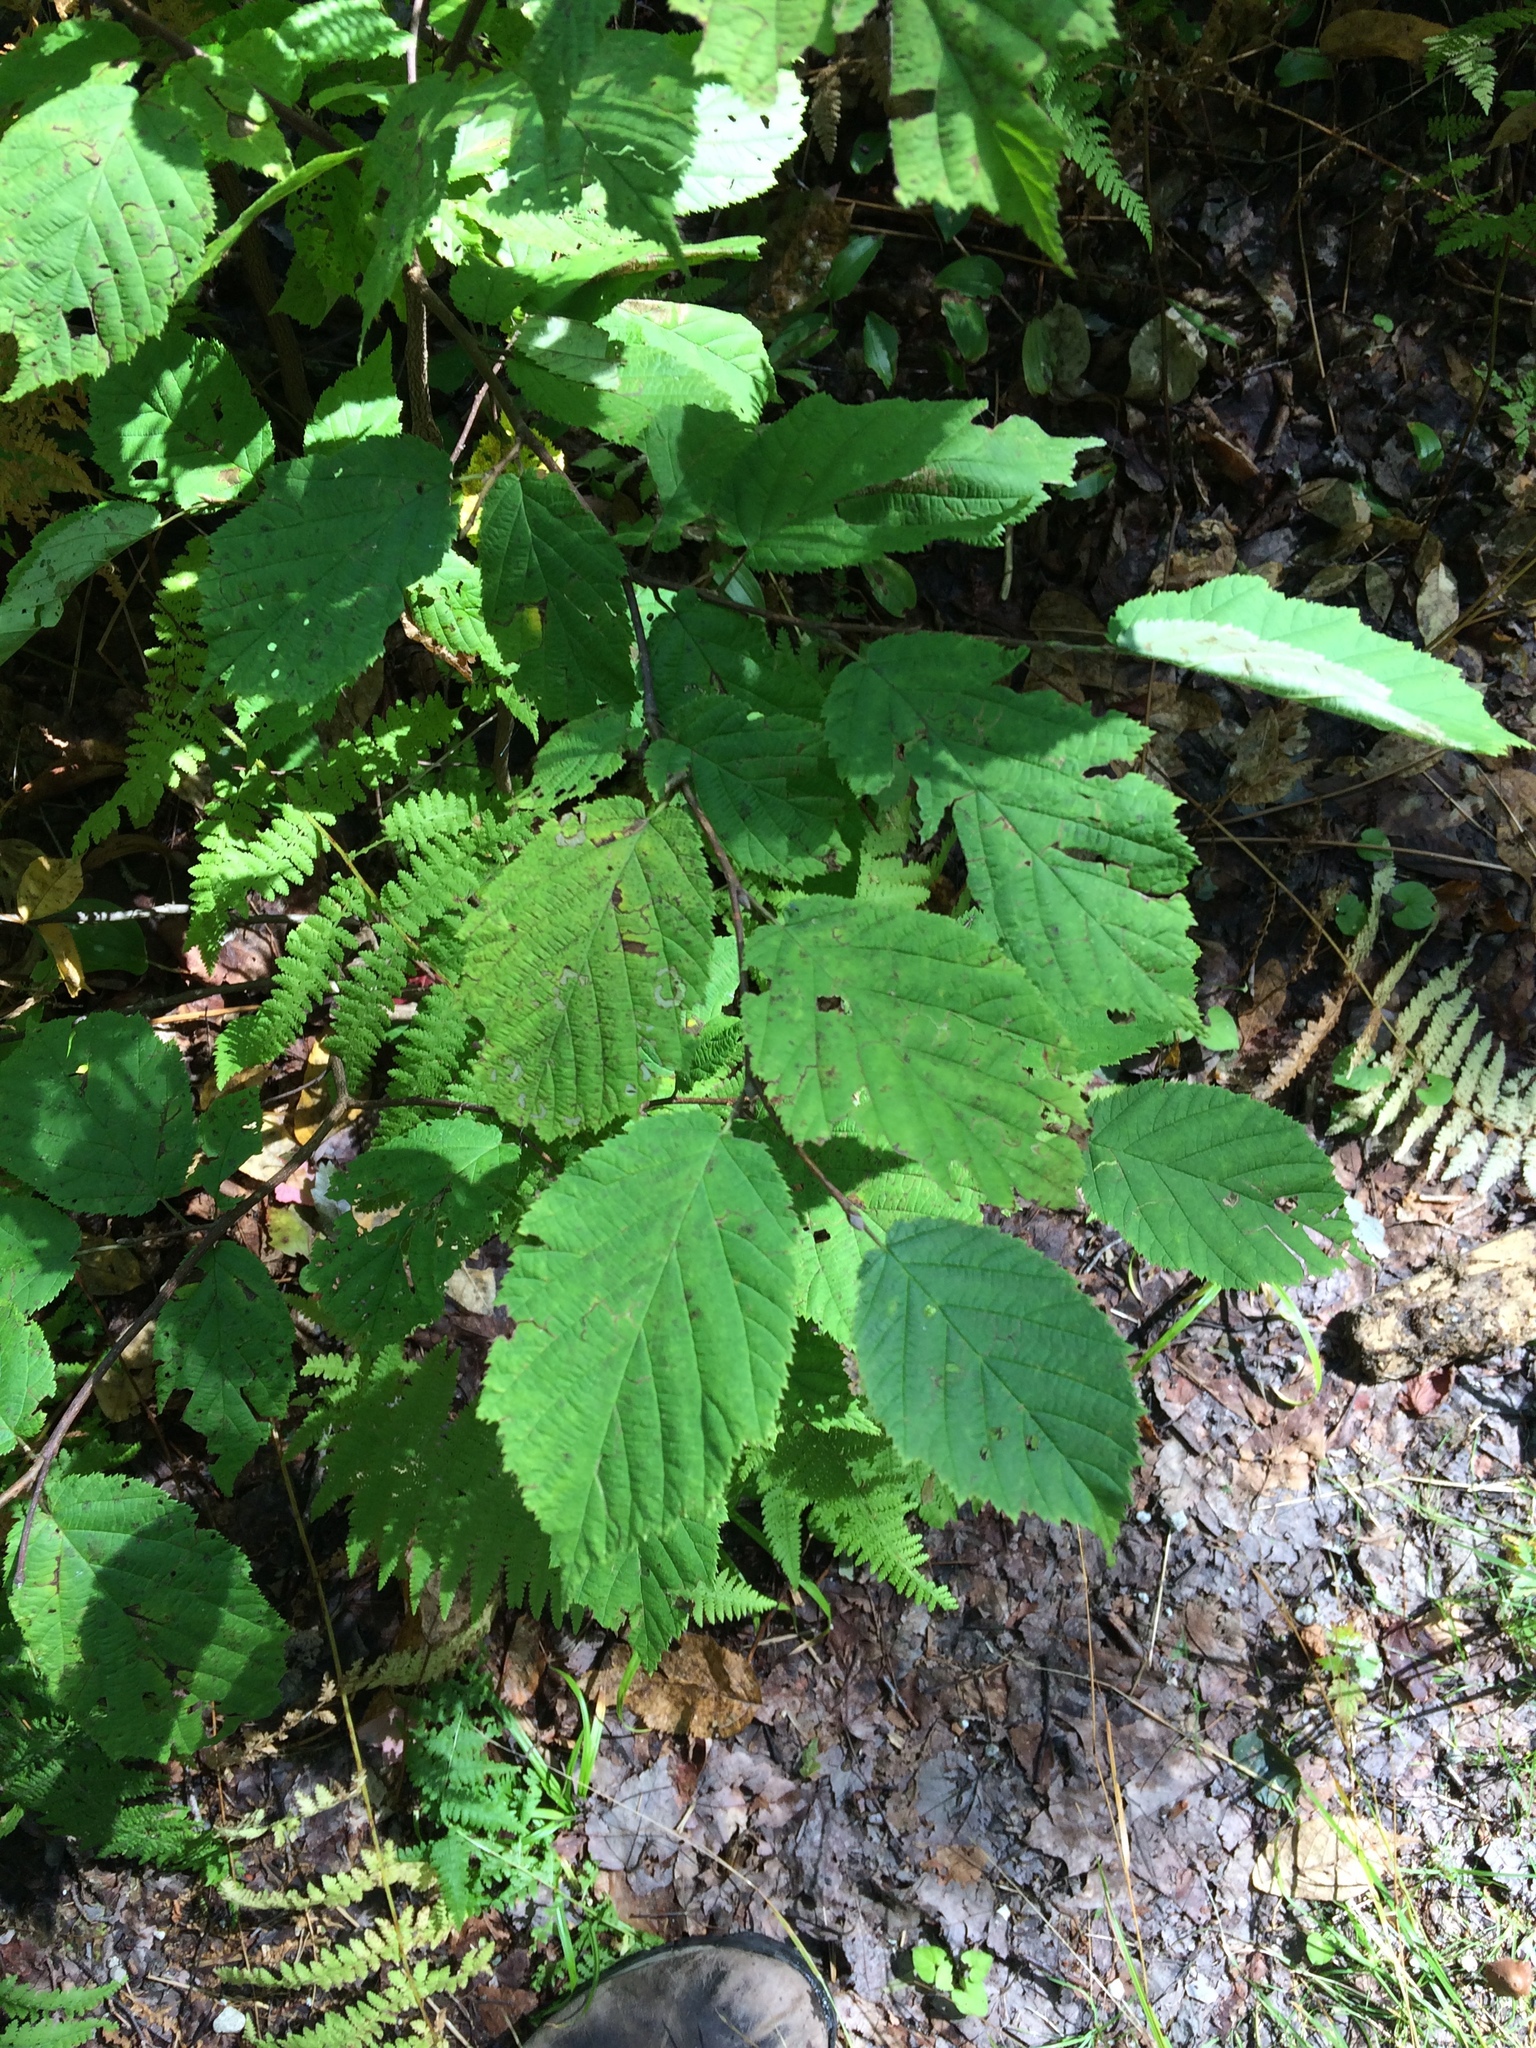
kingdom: Plantae
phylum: Tracheophyta
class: Magnoliopsida
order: Fagales
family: Betulaceae
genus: Corylus
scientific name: Corylus cornuta
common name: Beaked hazel
